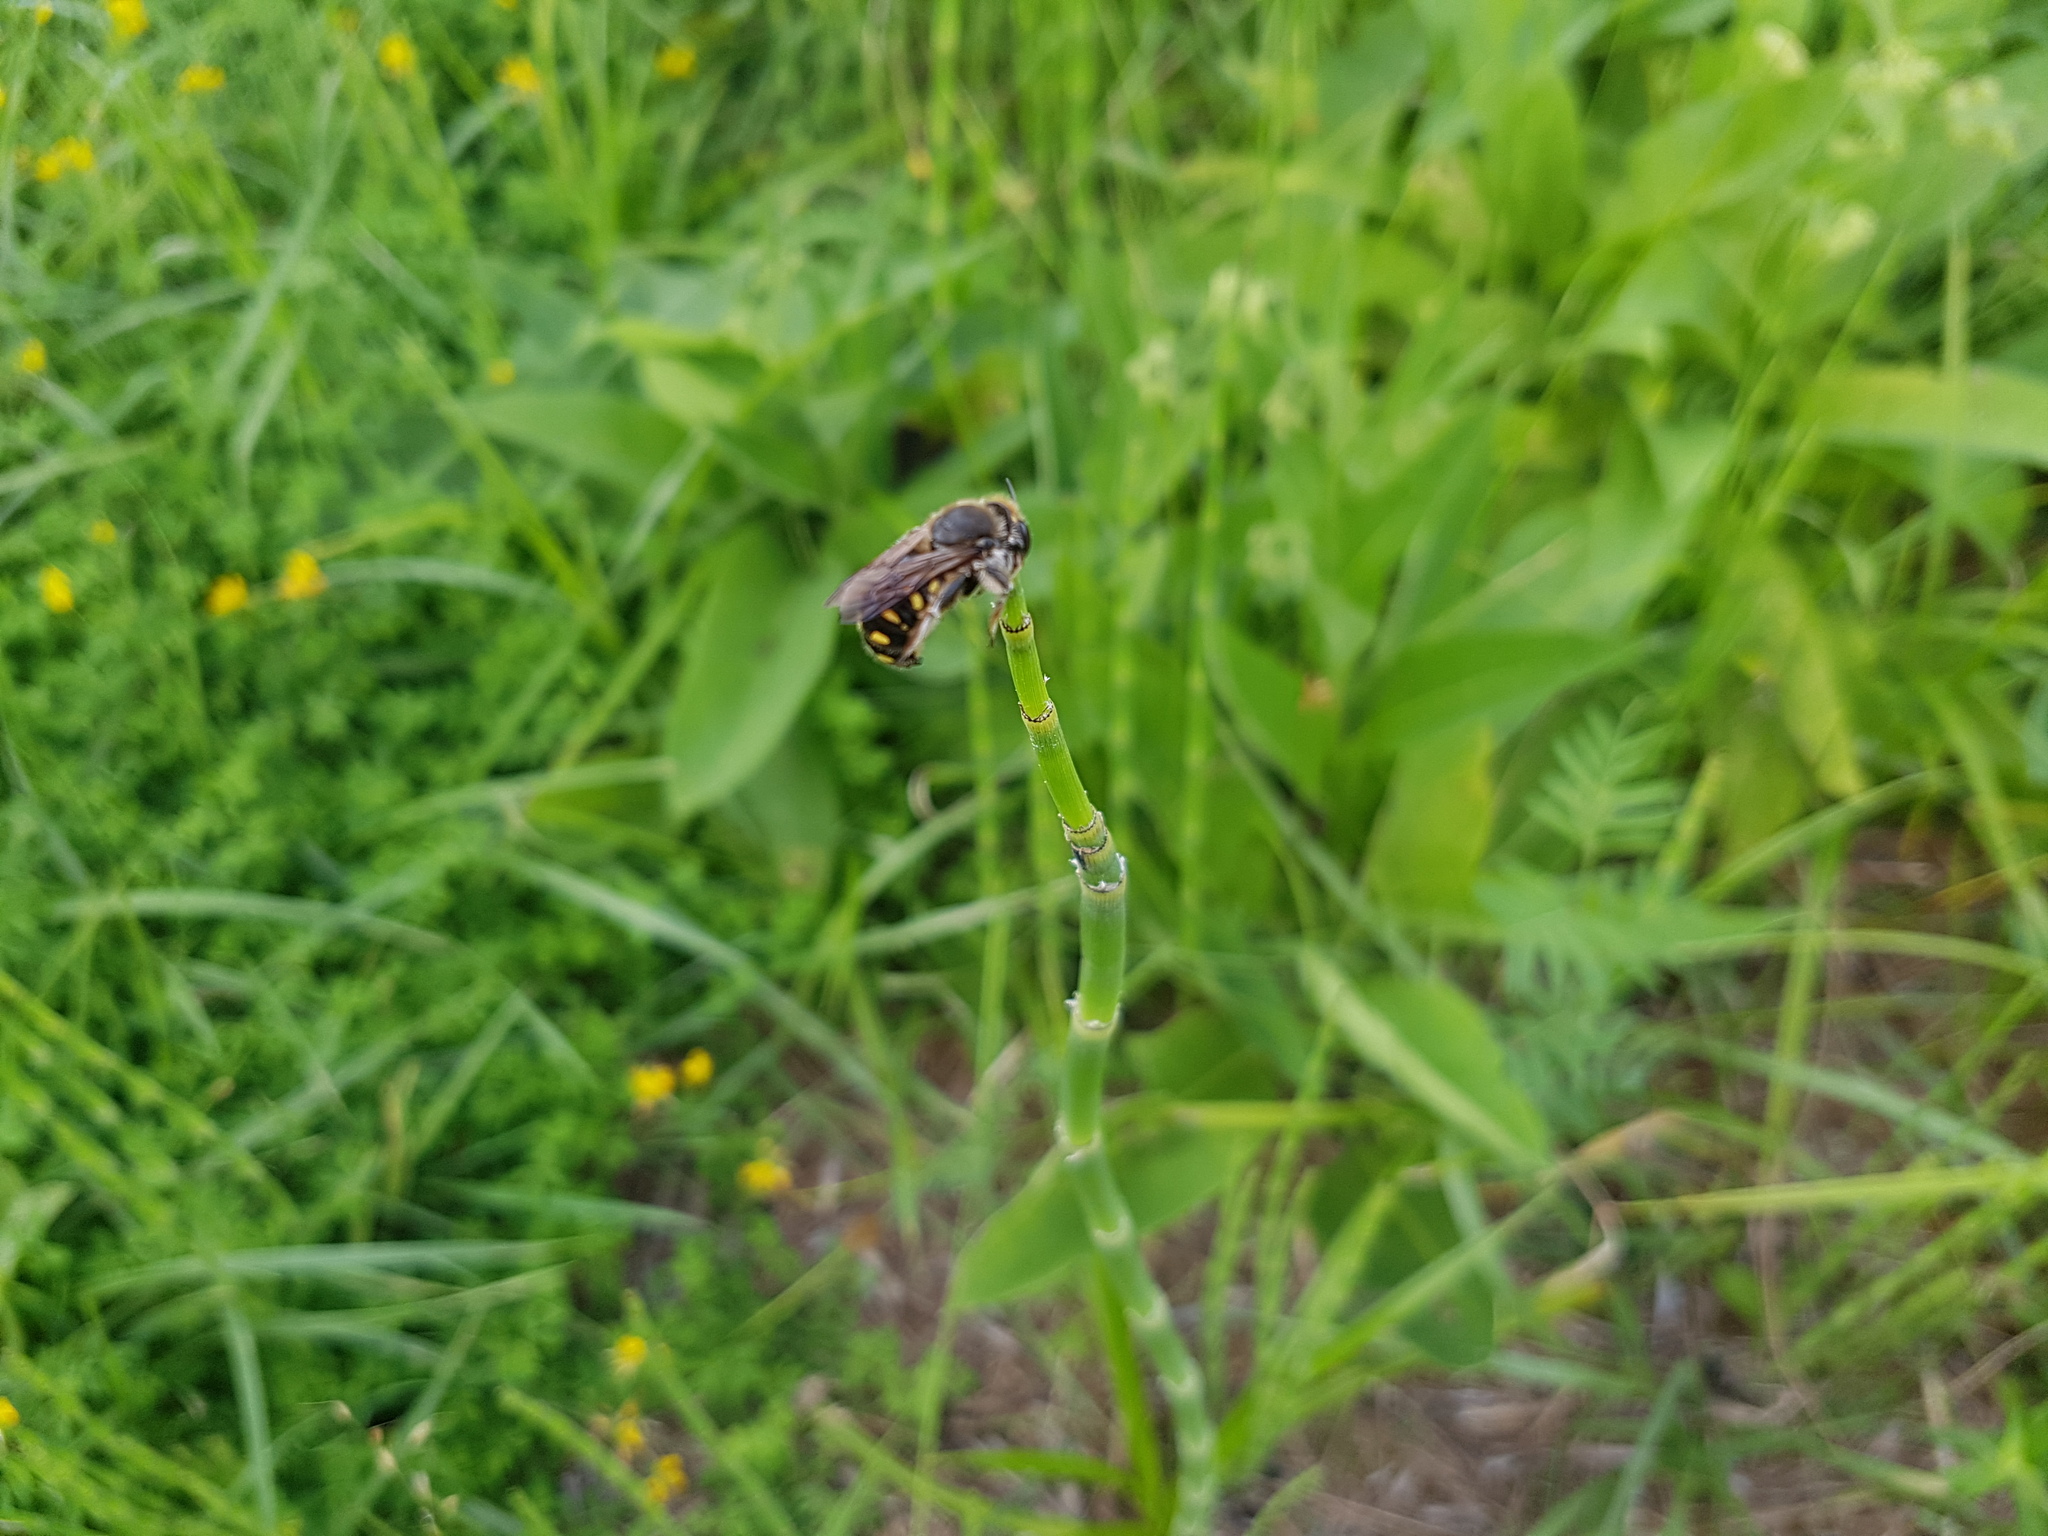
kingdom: Animalia
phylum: Arthropoda
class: Insecta
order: Hymenoptera
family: Megachilidae
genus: Anthidium
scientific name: Anthidium septemspinosum
